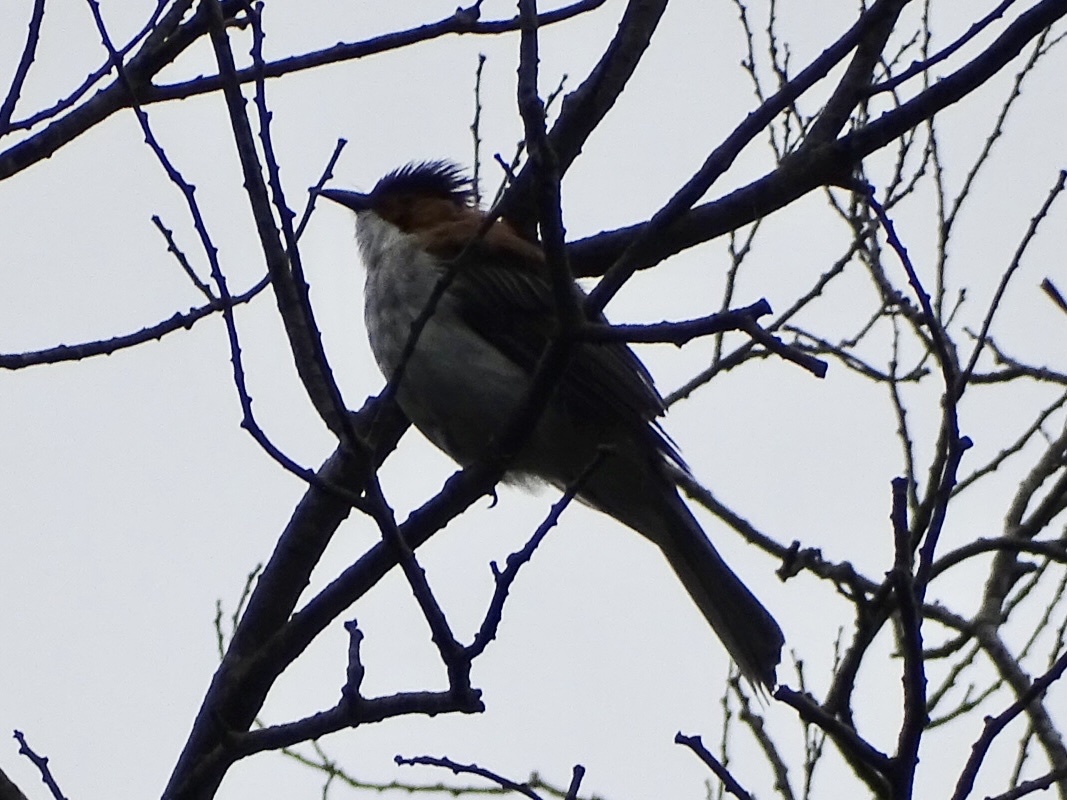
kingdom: Animalia
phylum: Chordata
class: Aves
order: Passeriformes
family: Pycnonotidae
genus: Hemixos
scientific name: Hemixos castanonotus
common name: Chestnut bulbul
